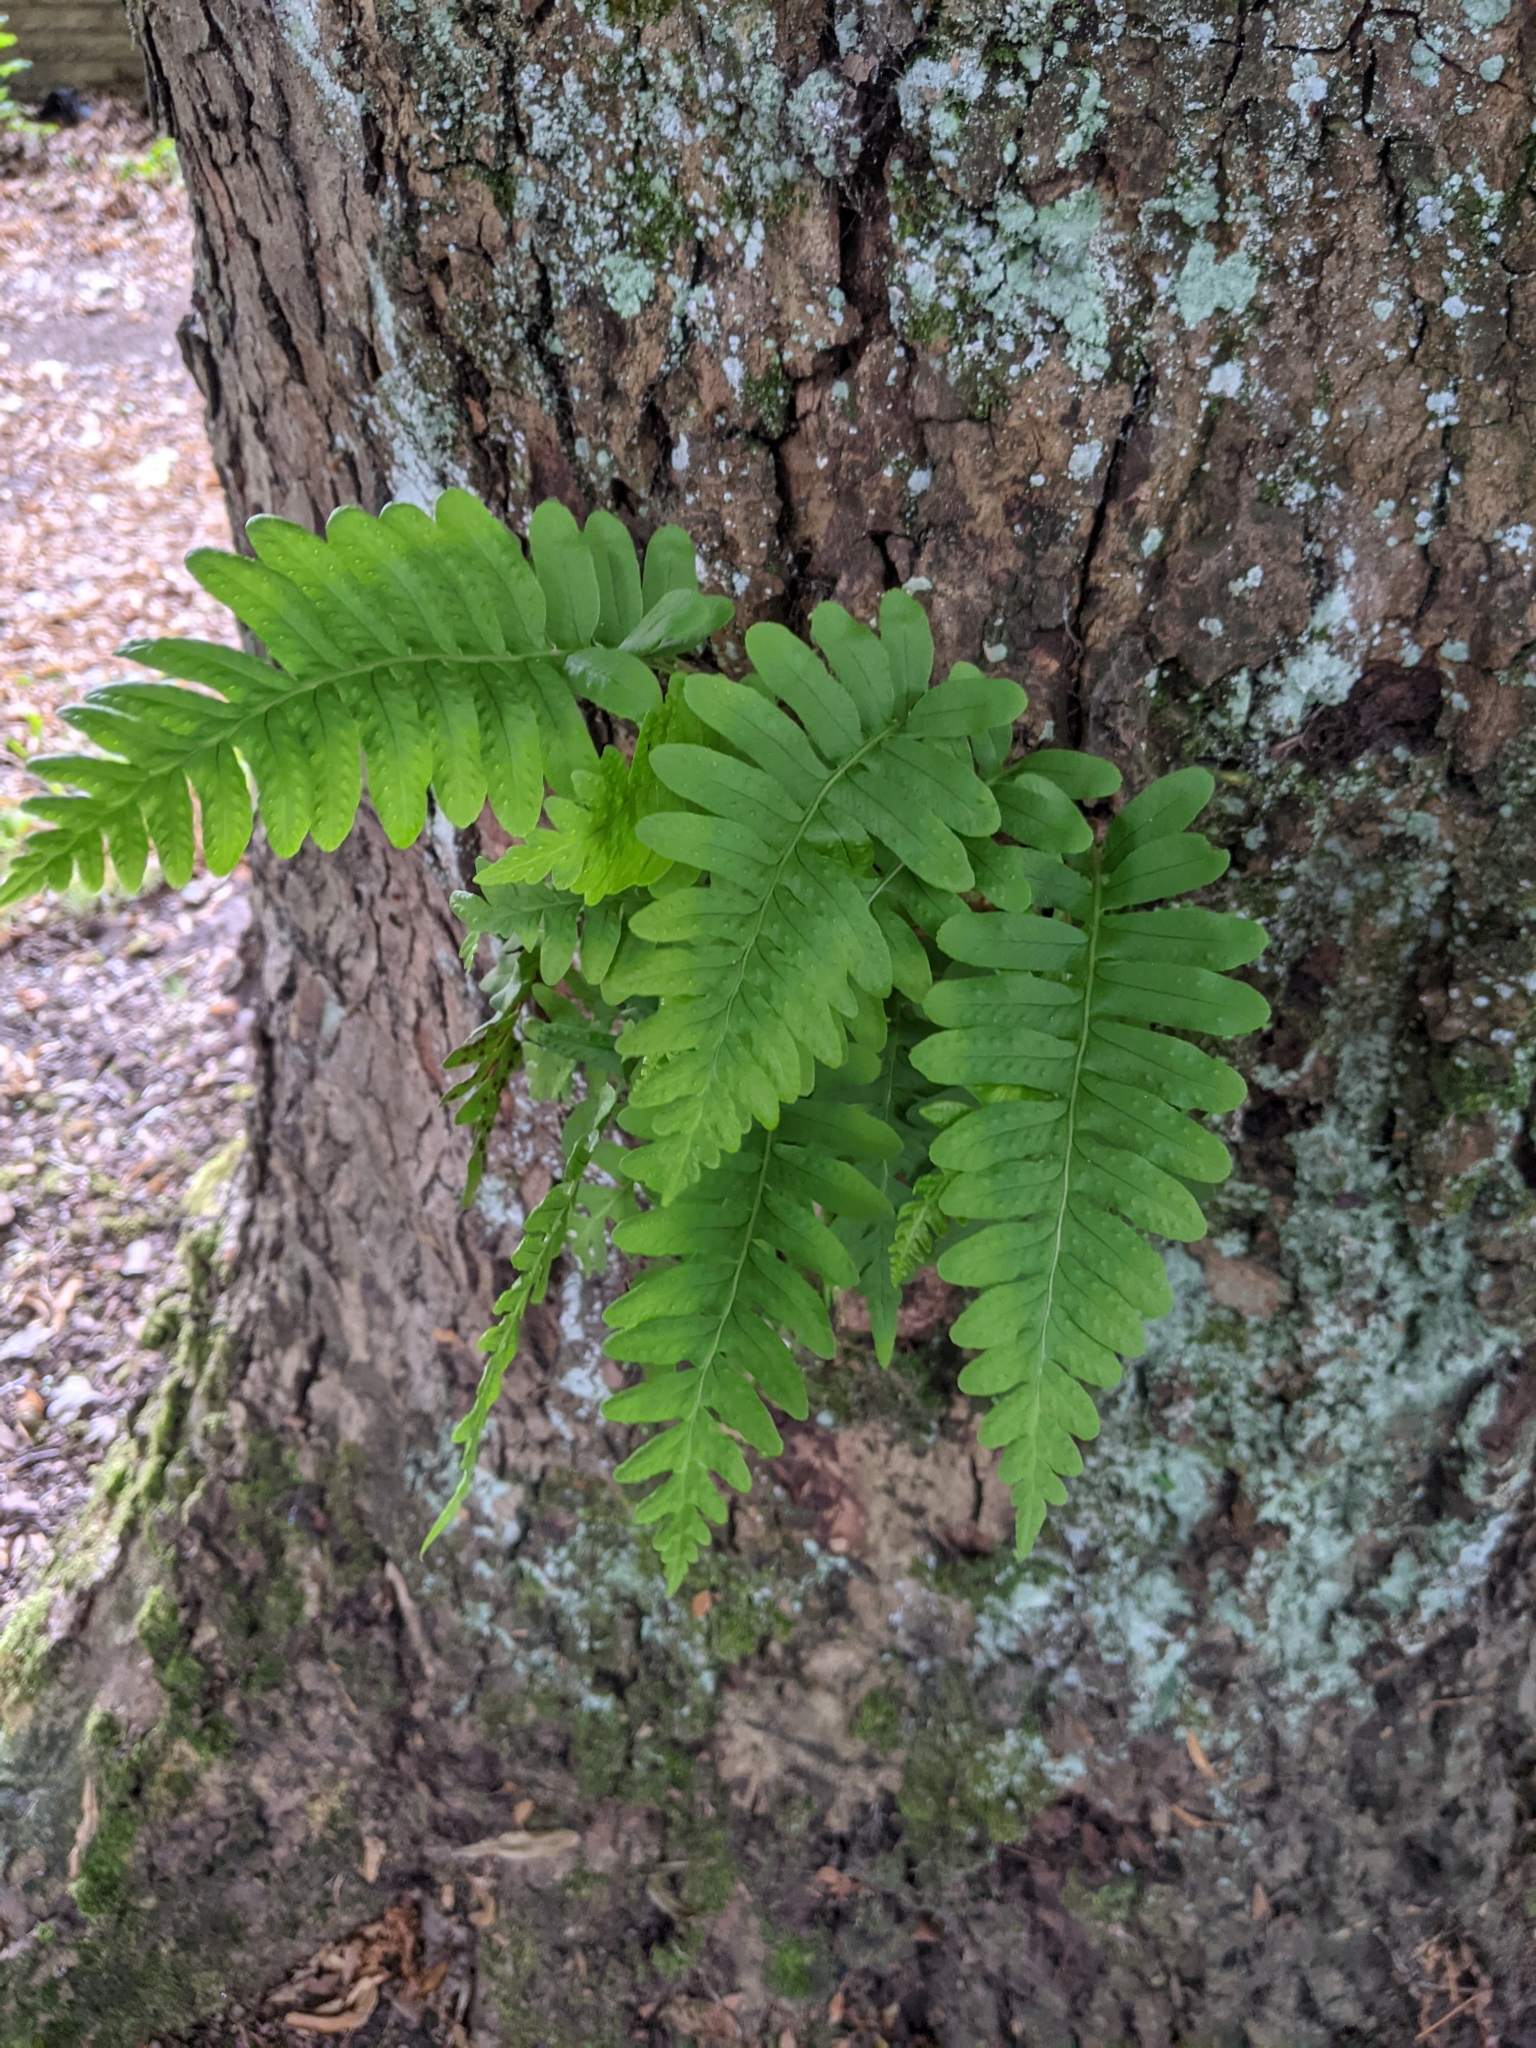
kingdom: Plantae
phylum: Tracheophyta
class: Polypodiopsida
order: Polypodiales
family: Polypodiaceae
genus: Polypodium
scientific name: Polypodium vulgare
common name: Common polypody
